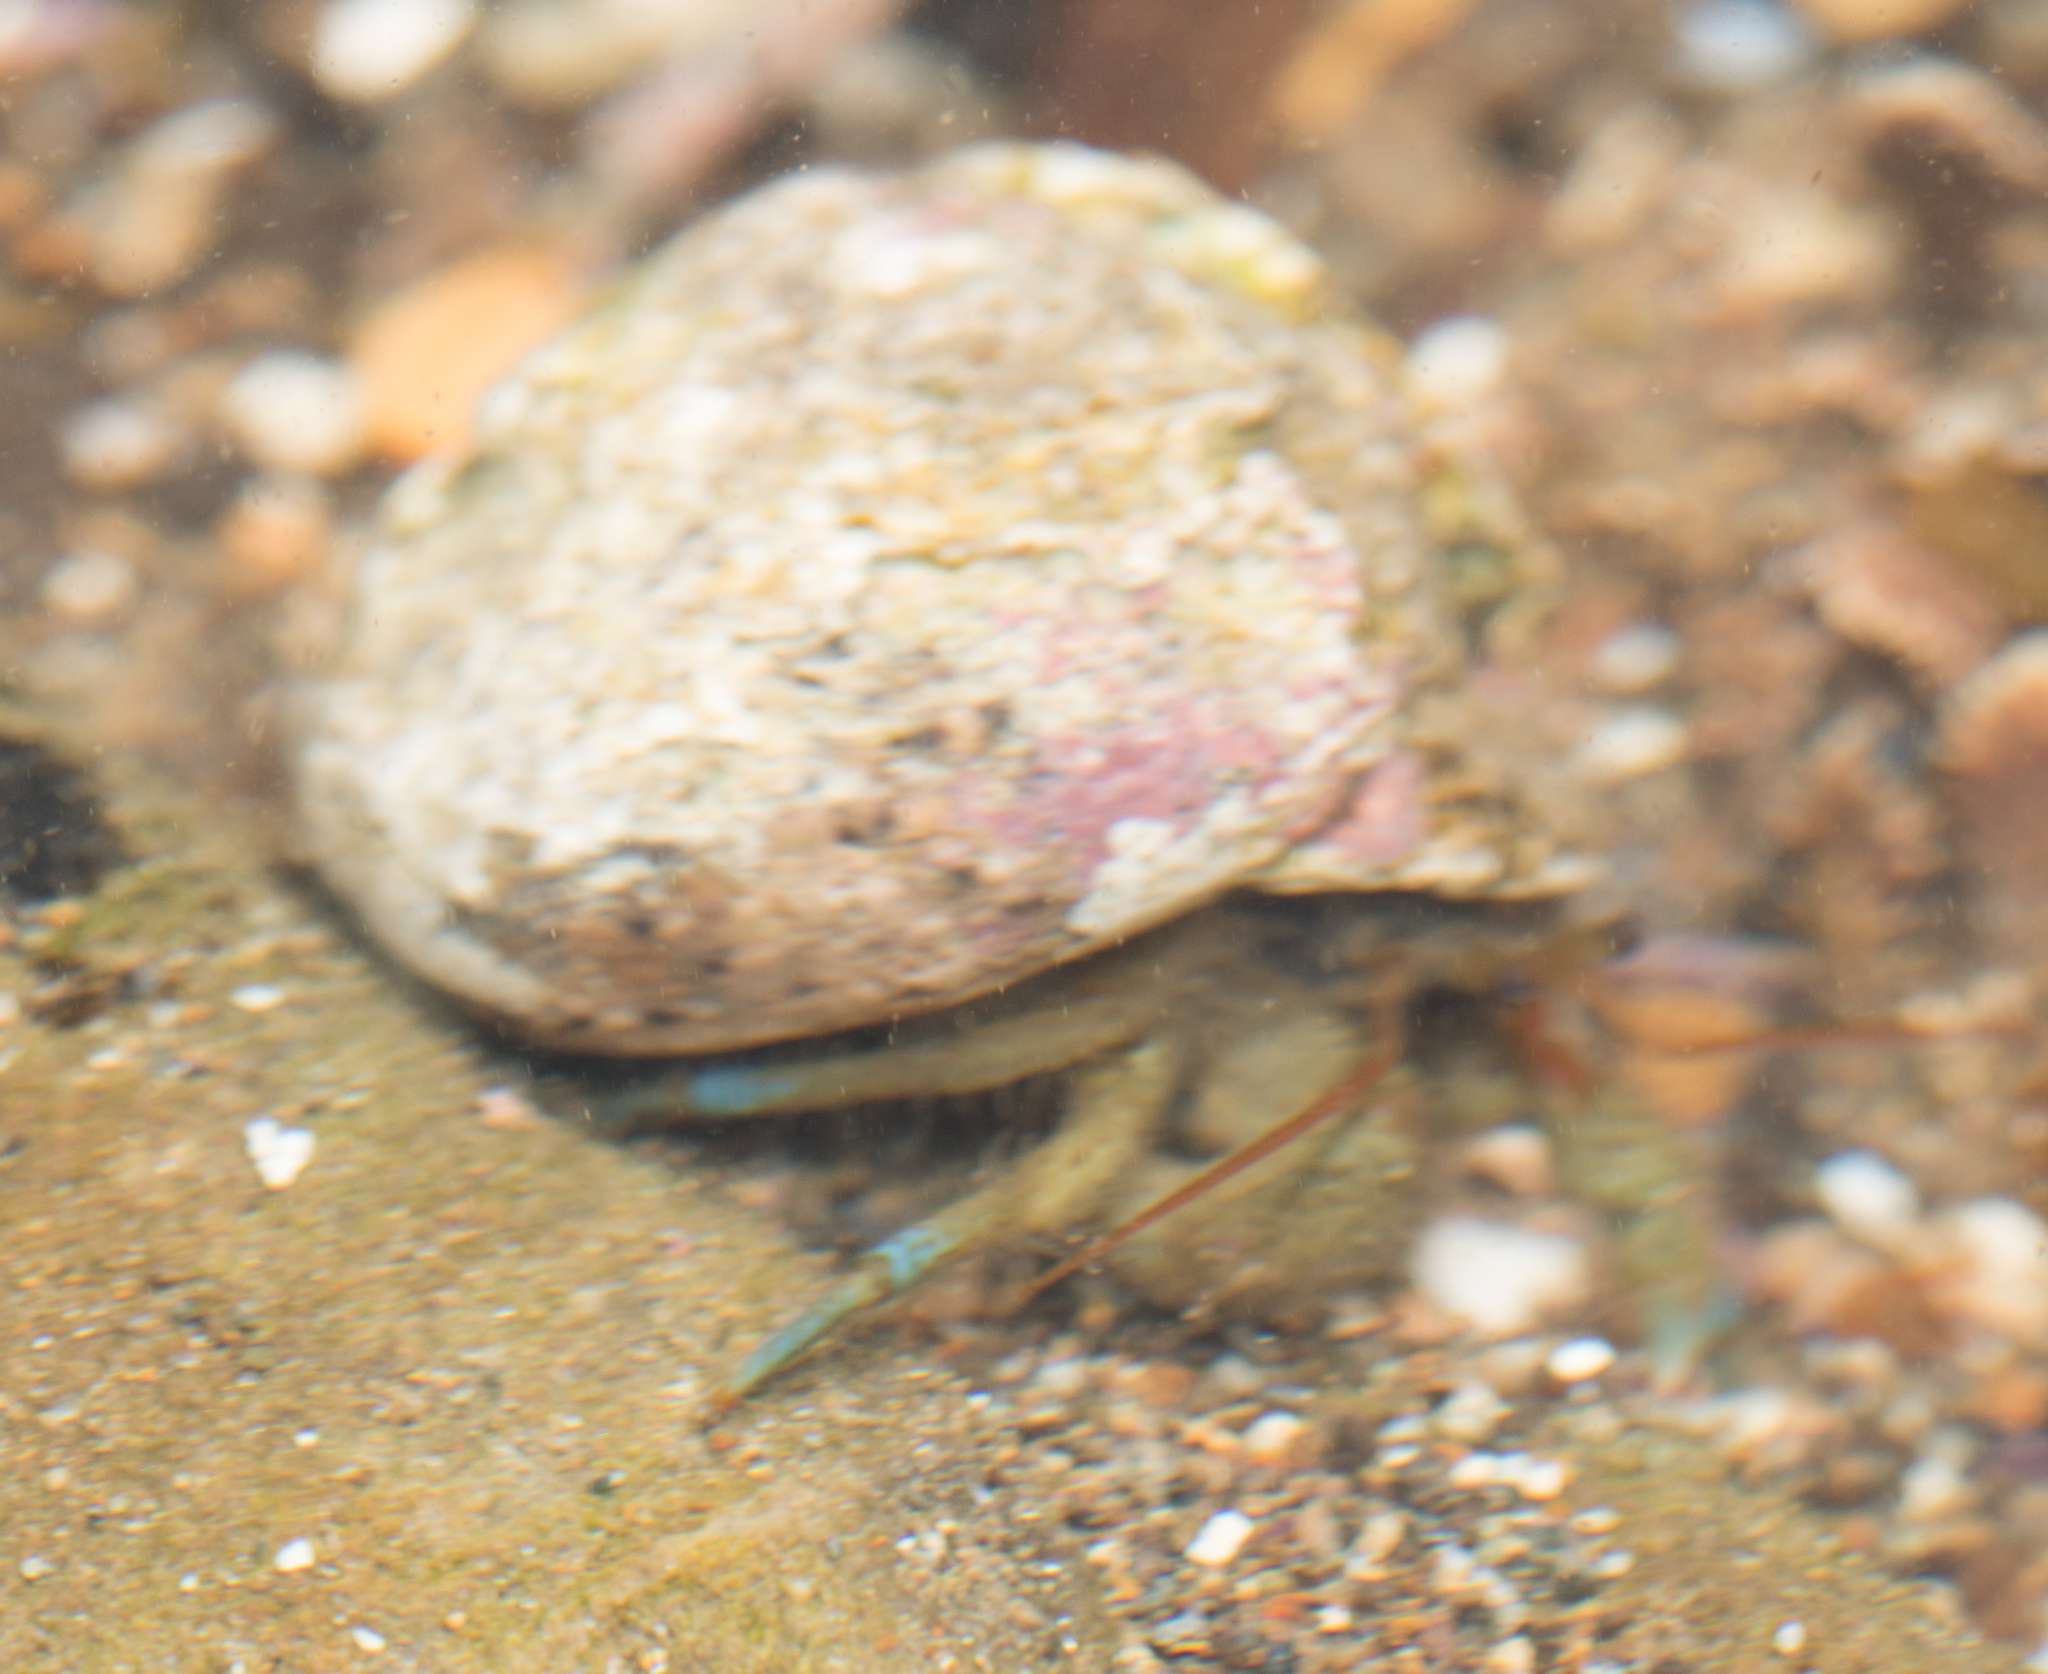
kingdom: Animalia
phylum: Arthropoda
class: Malacostraca
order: Decapoda
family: Paguridae
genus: Pagurus
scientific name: Pagurus samuelis
